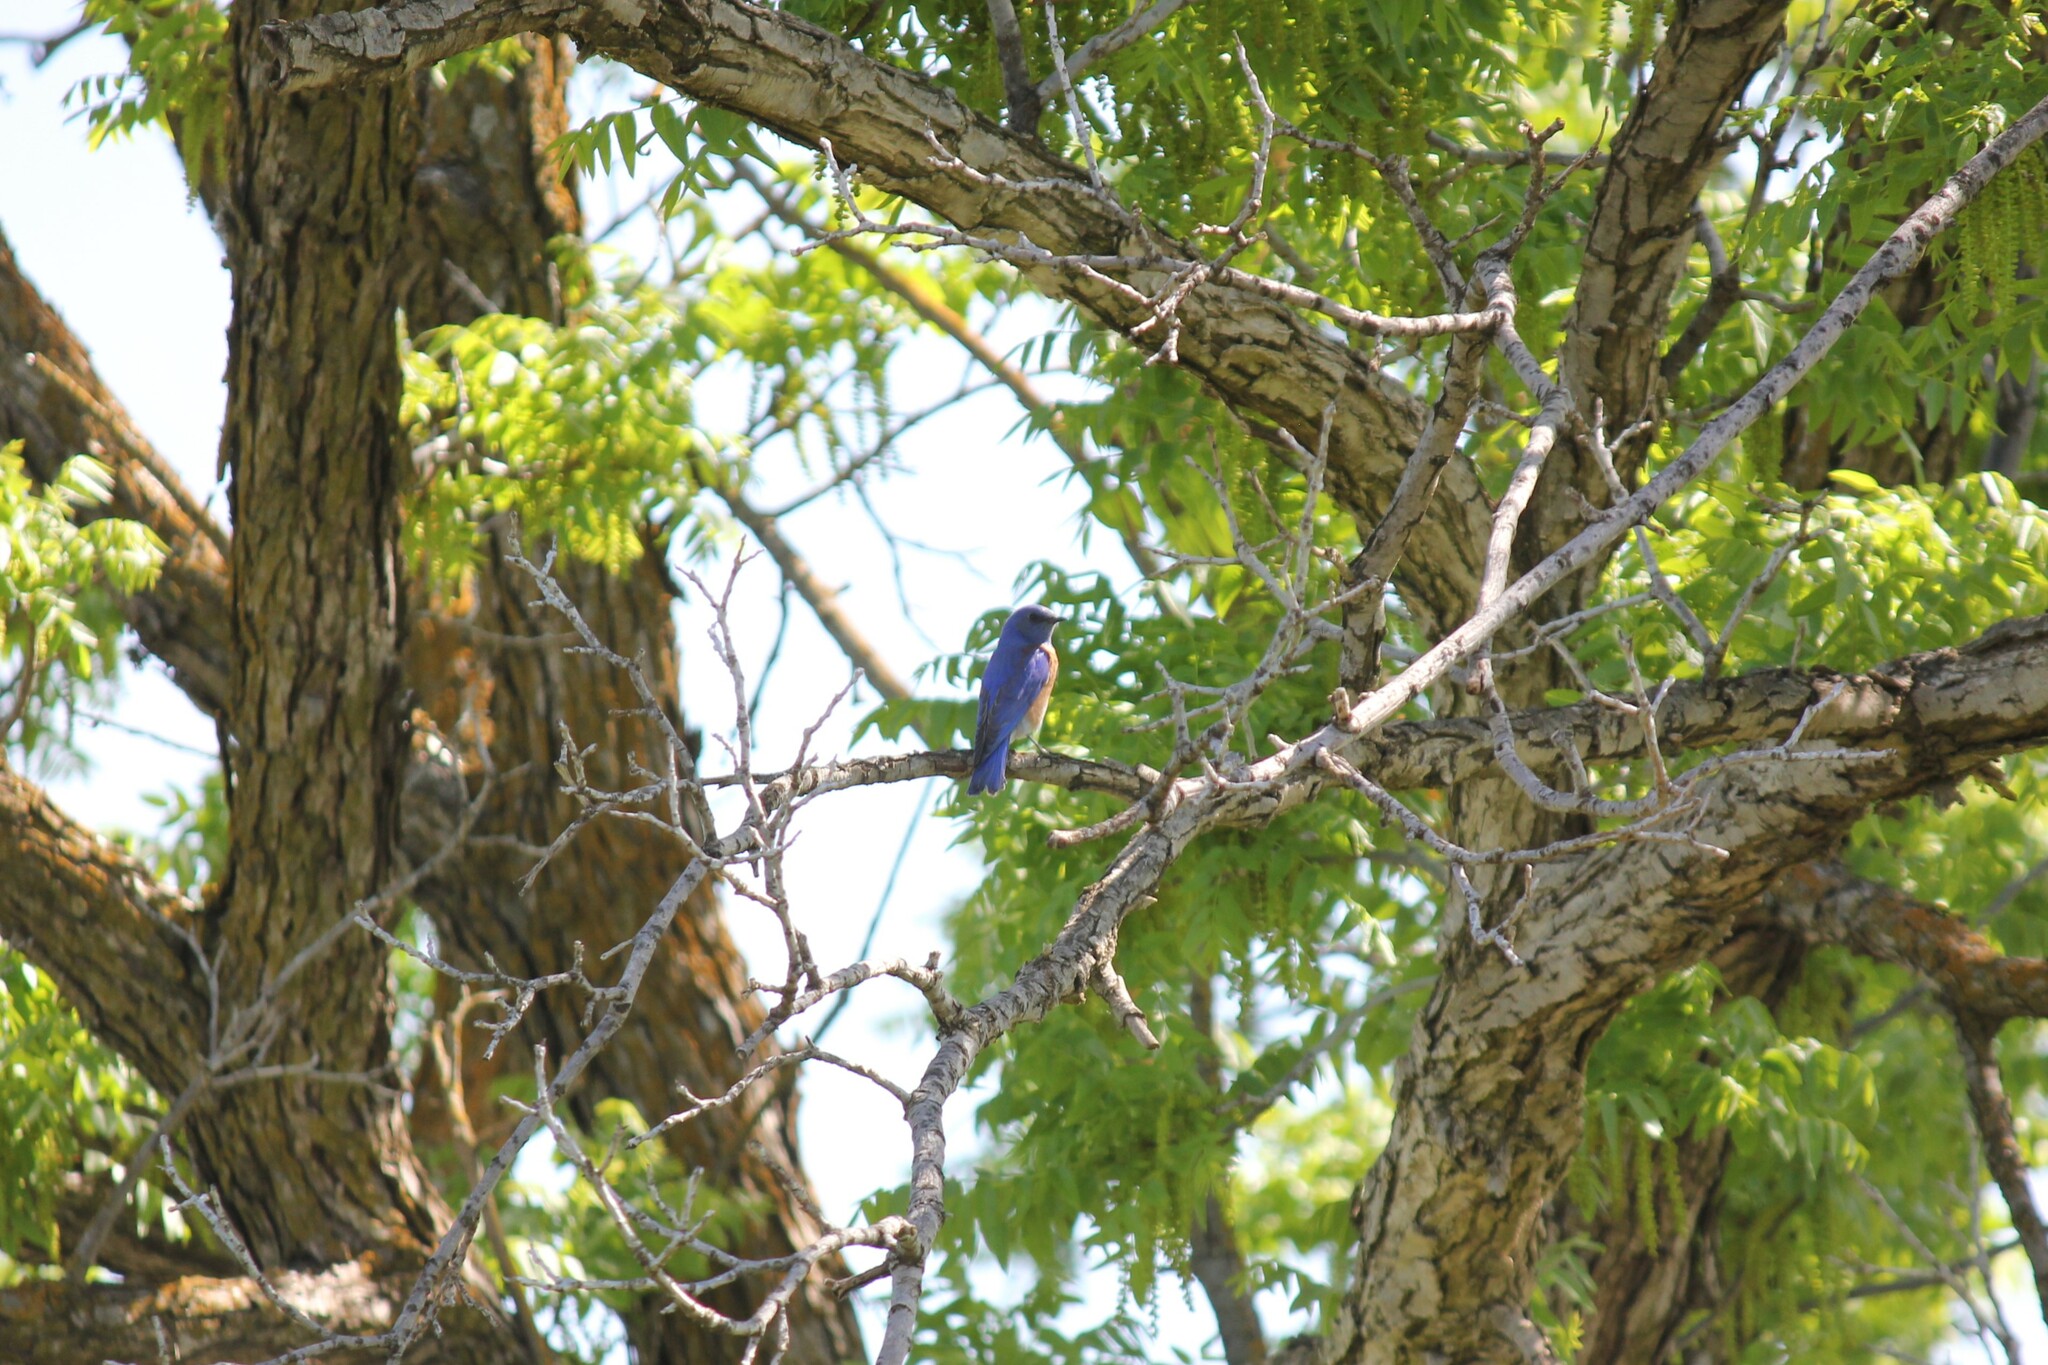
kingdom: Animalia
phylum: Chordata
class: Aves
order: Passeriformes
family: Turdidae
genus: Sialia
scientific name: Sialia mexicana
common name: Western bluebird
